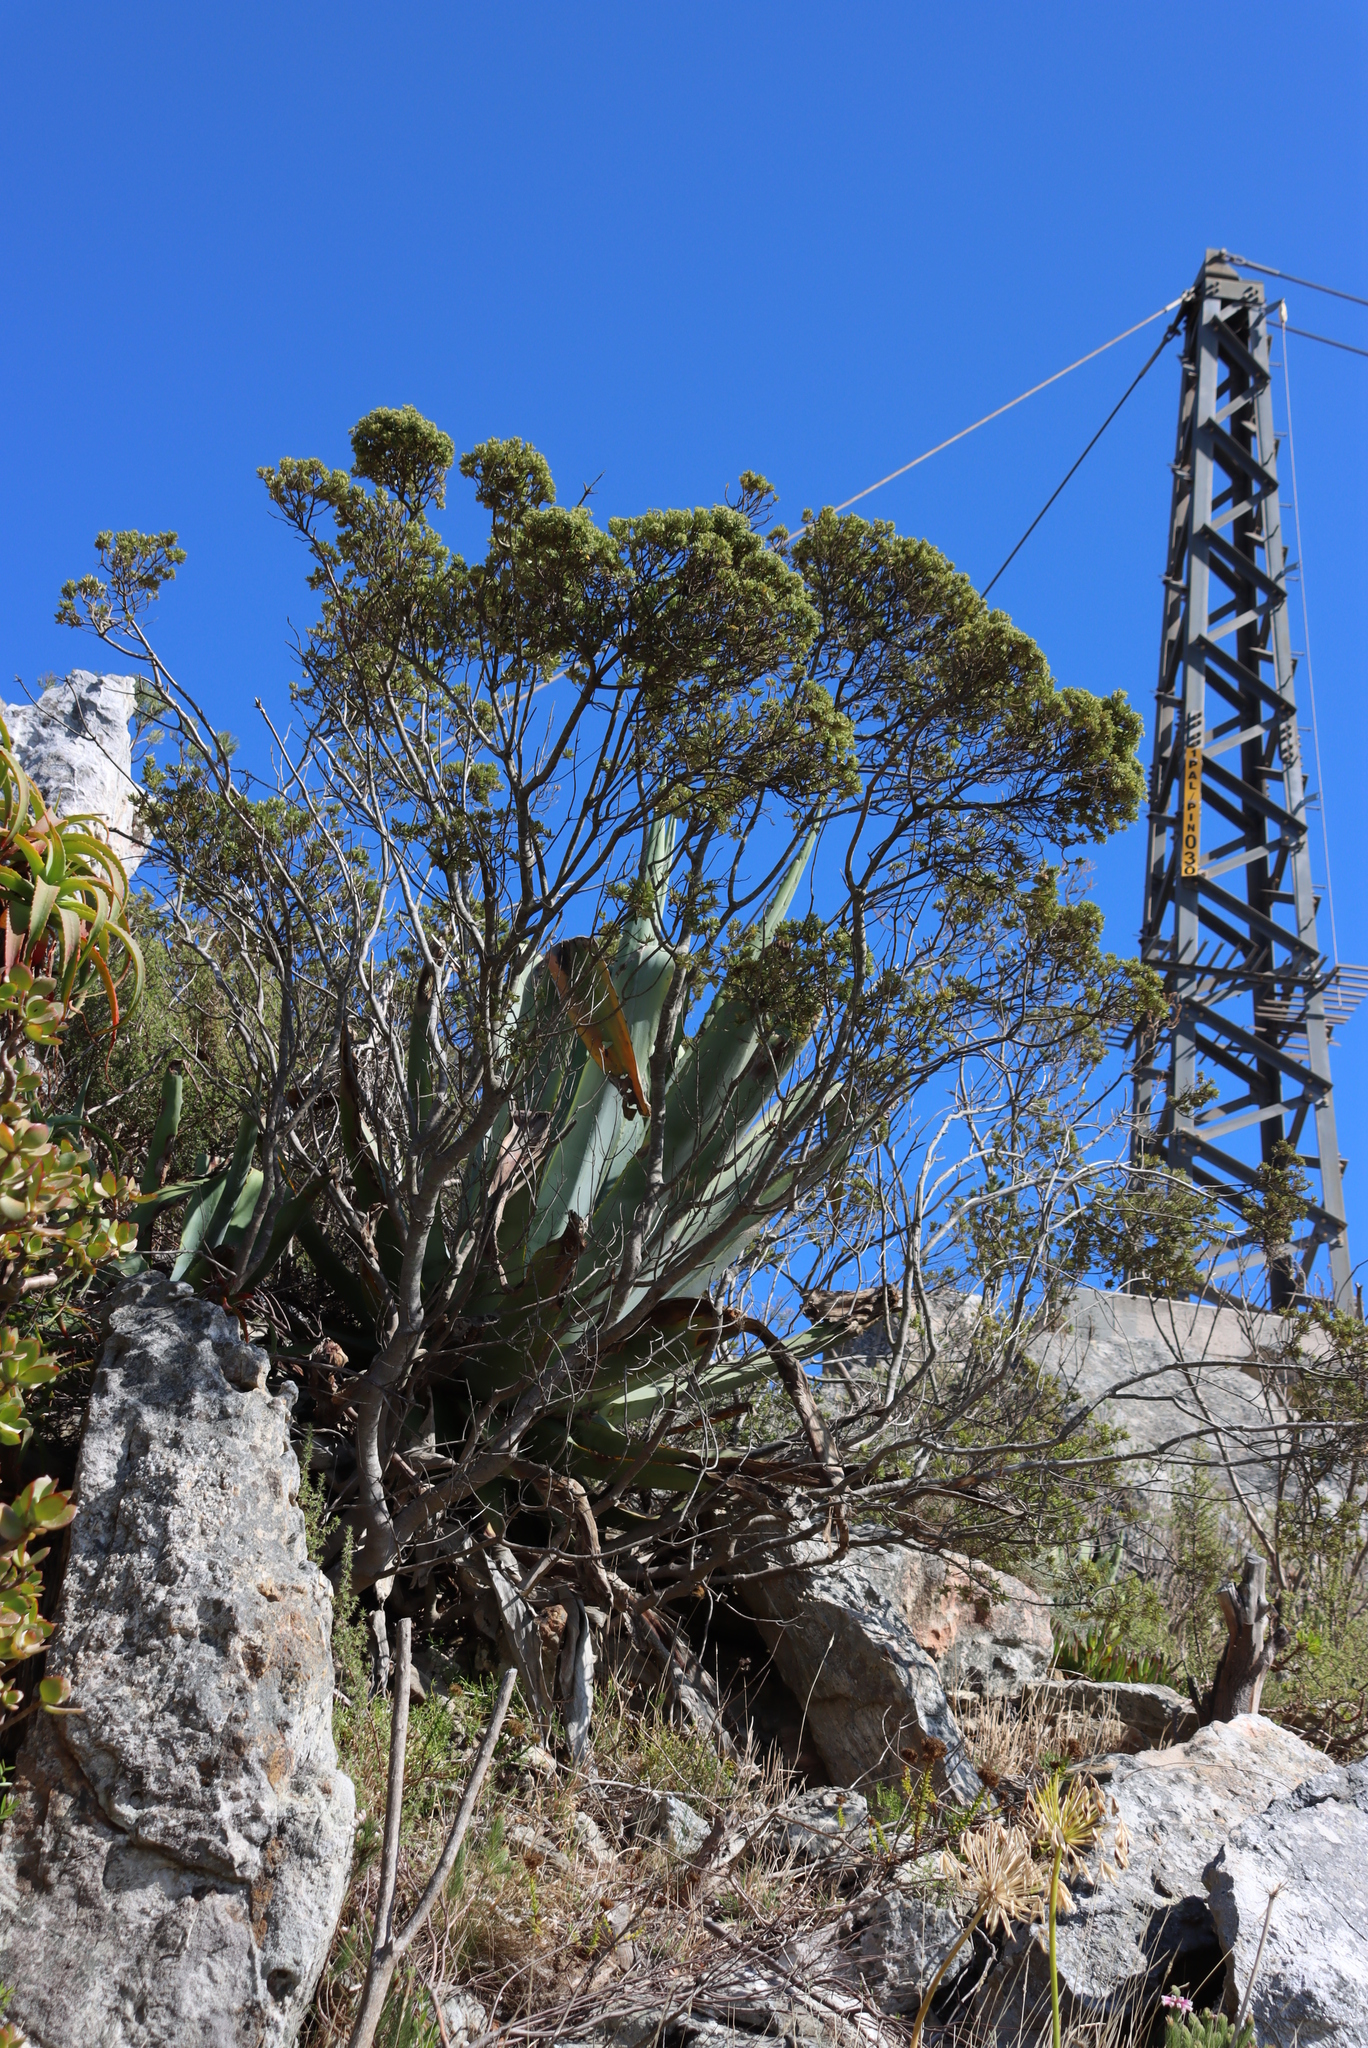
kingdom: Plantae
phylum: Tracheophyta
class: Liliopsida
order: Asparagales
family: Asparagaceae
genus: Agave
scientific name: Agave americana
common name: Centuryplant
